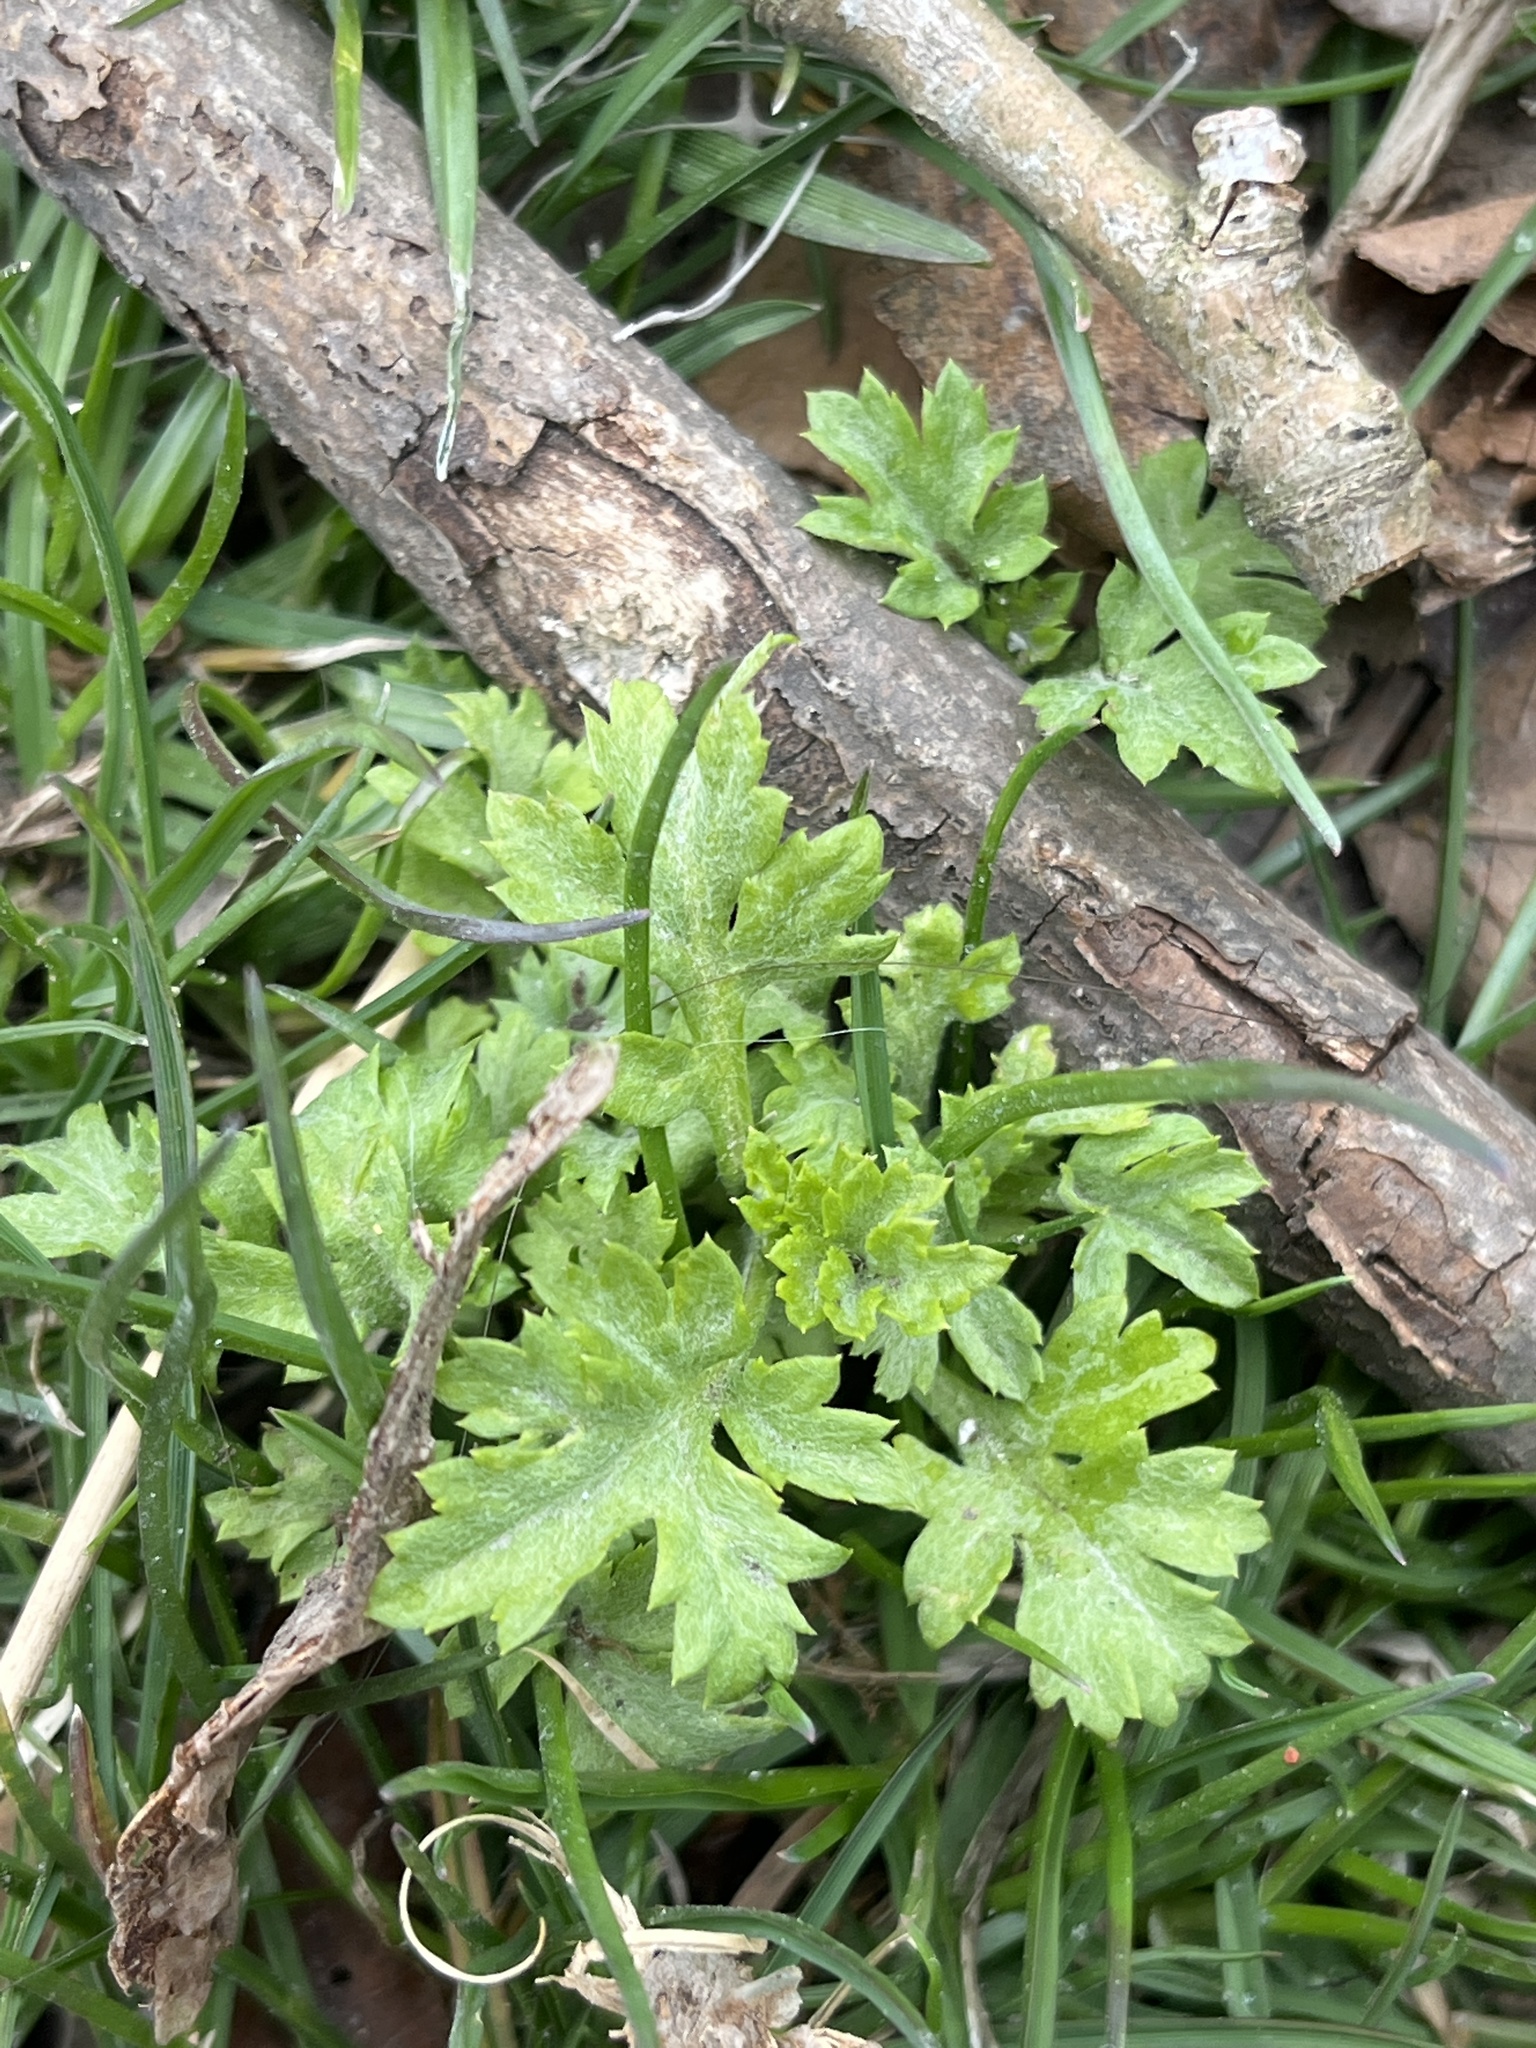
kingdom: Plantae
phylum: Tracheophyta
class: Magnoliopsida
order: Asterales
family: Asteraceae
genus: Artemisia
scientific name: Artemisia vulgaris
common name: Mugwort
